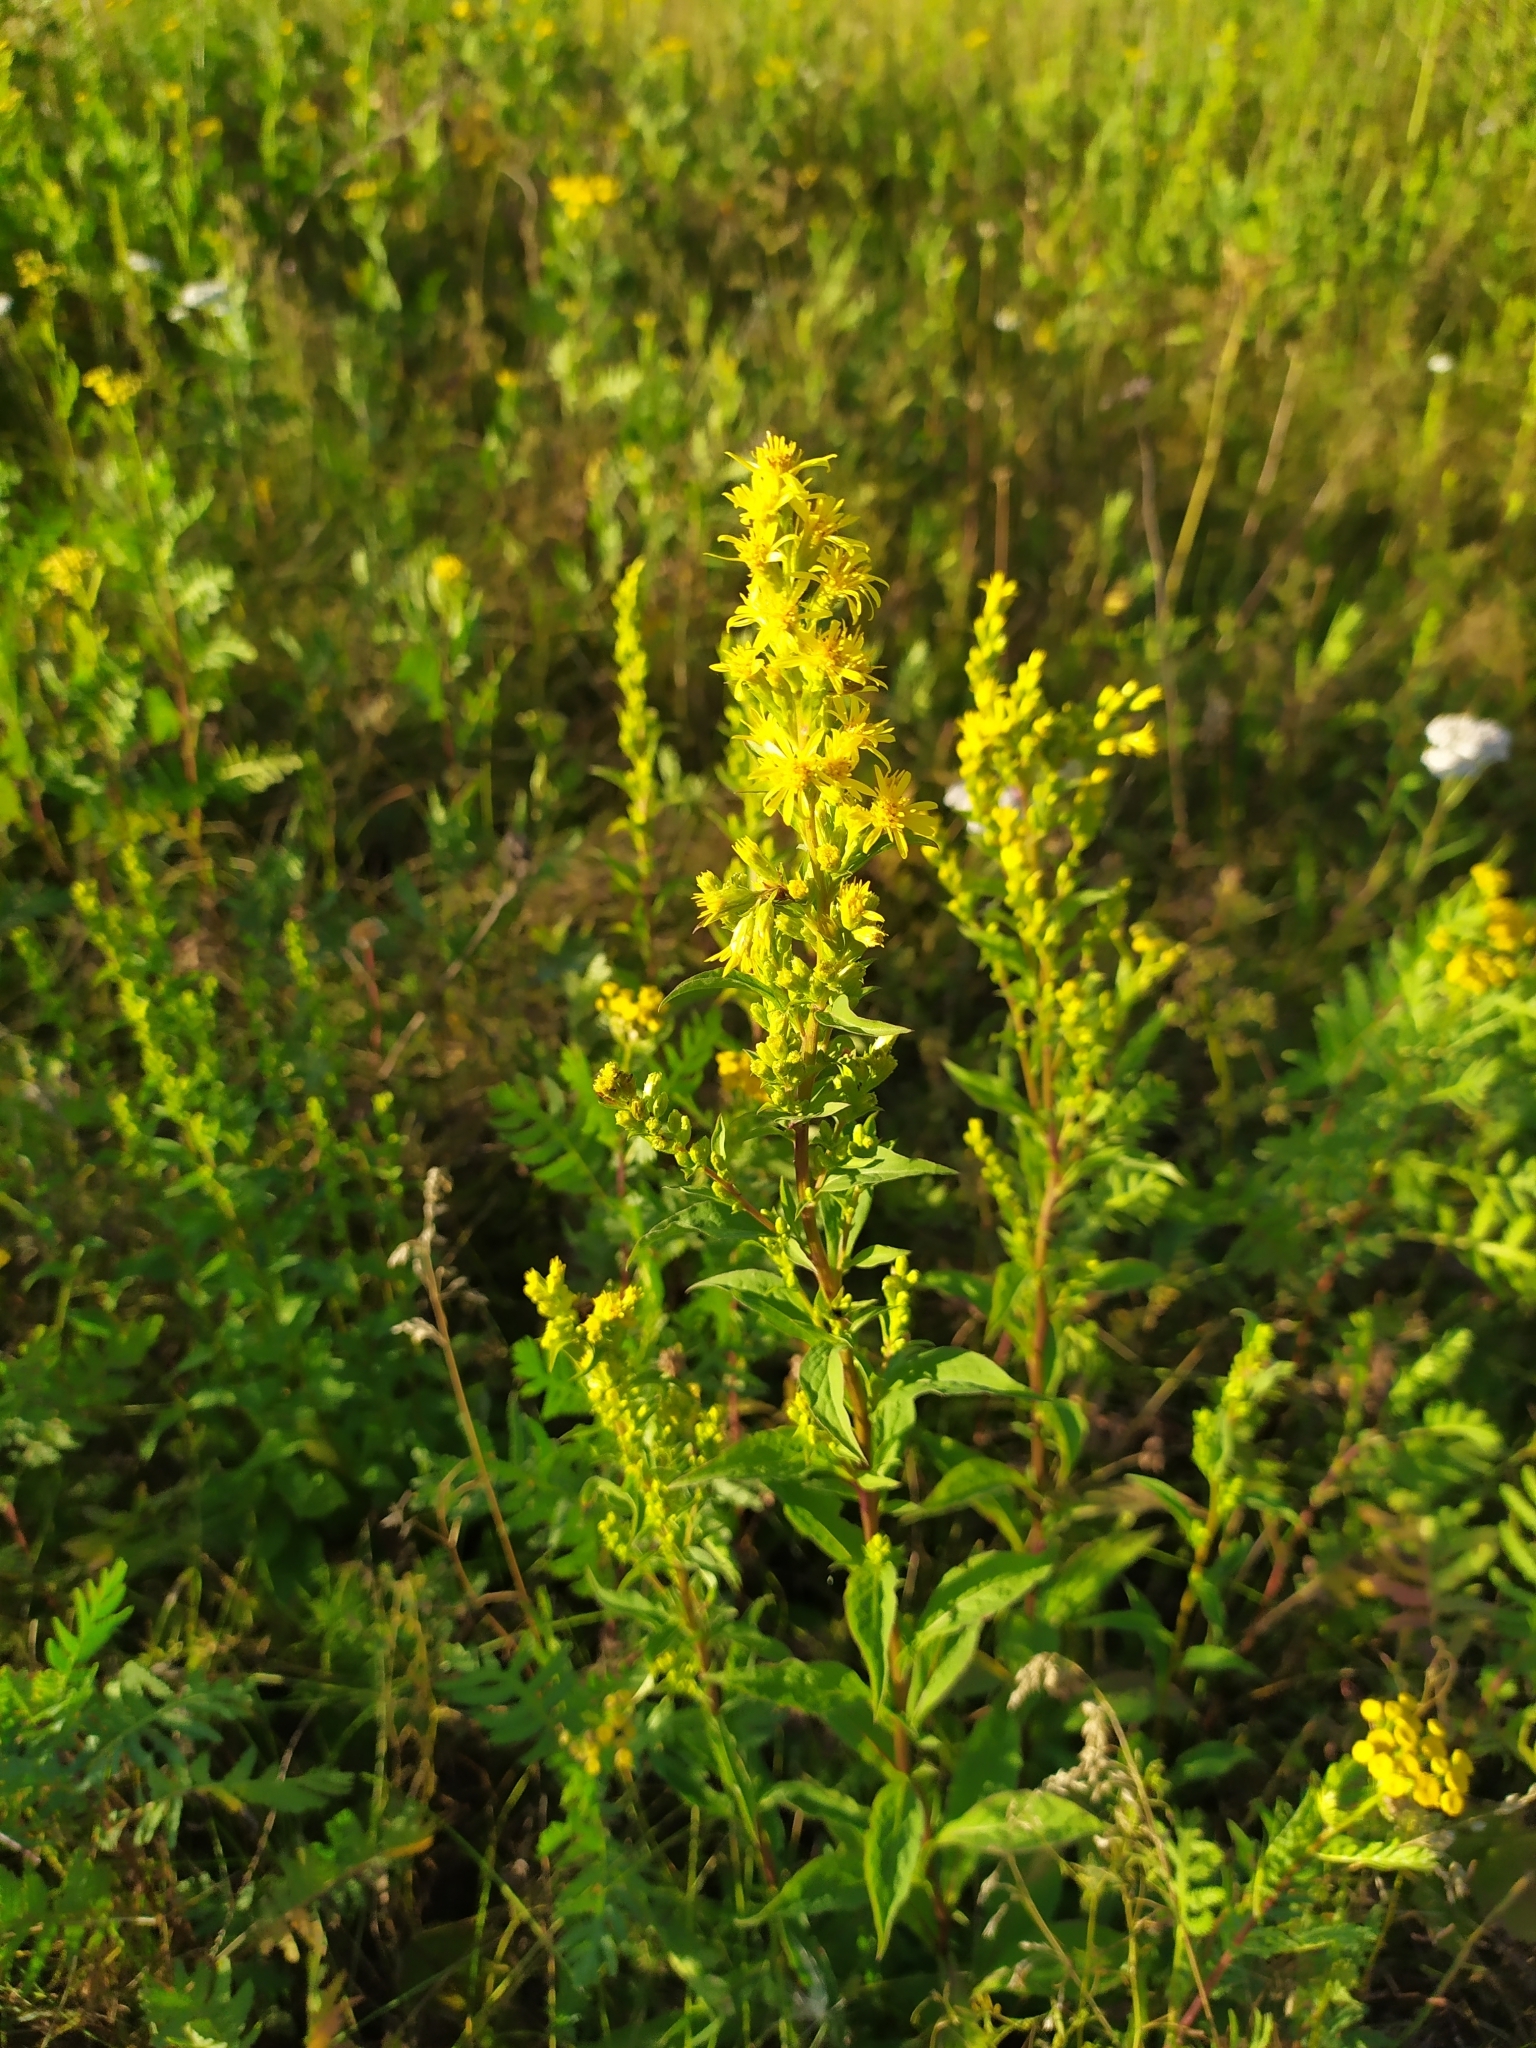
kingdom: Plantae
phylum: Tracheophyta
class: Magnoliopsida
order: Asterales
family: Asteraceae
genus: Solidago
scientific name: Solidago virgaurea
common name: Goldenrod
